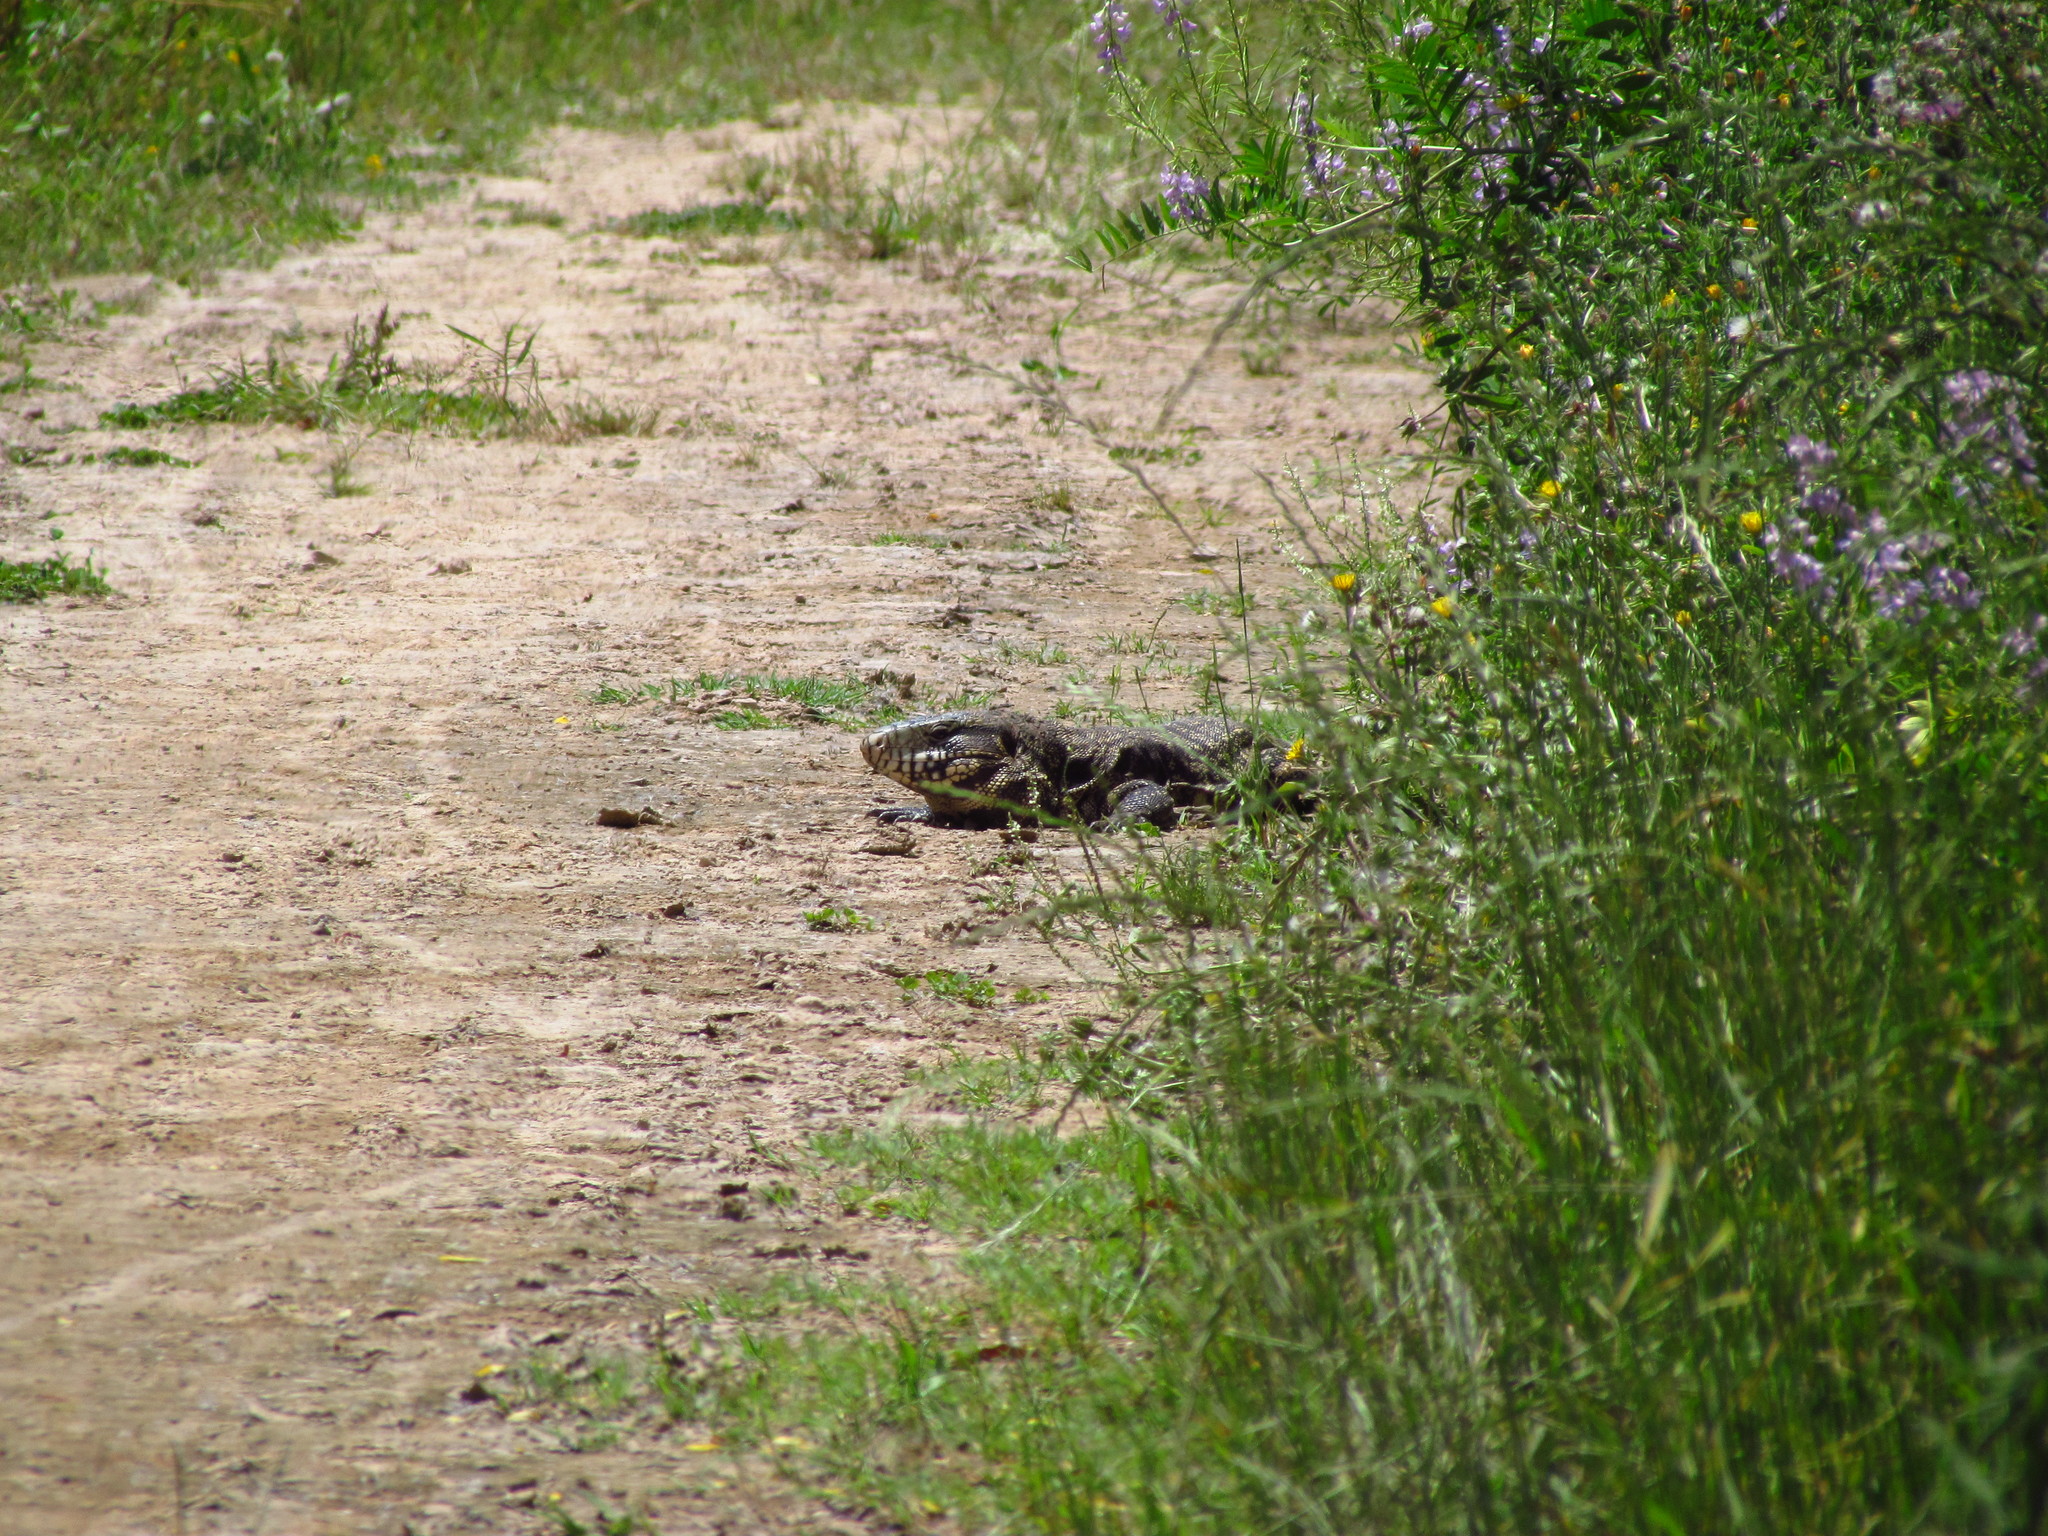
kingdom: Animalia
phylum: Chordata
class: Squamata
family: Teiidae
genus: Salvator
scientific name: Salvator merianae
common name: Argentine black and white tegu
